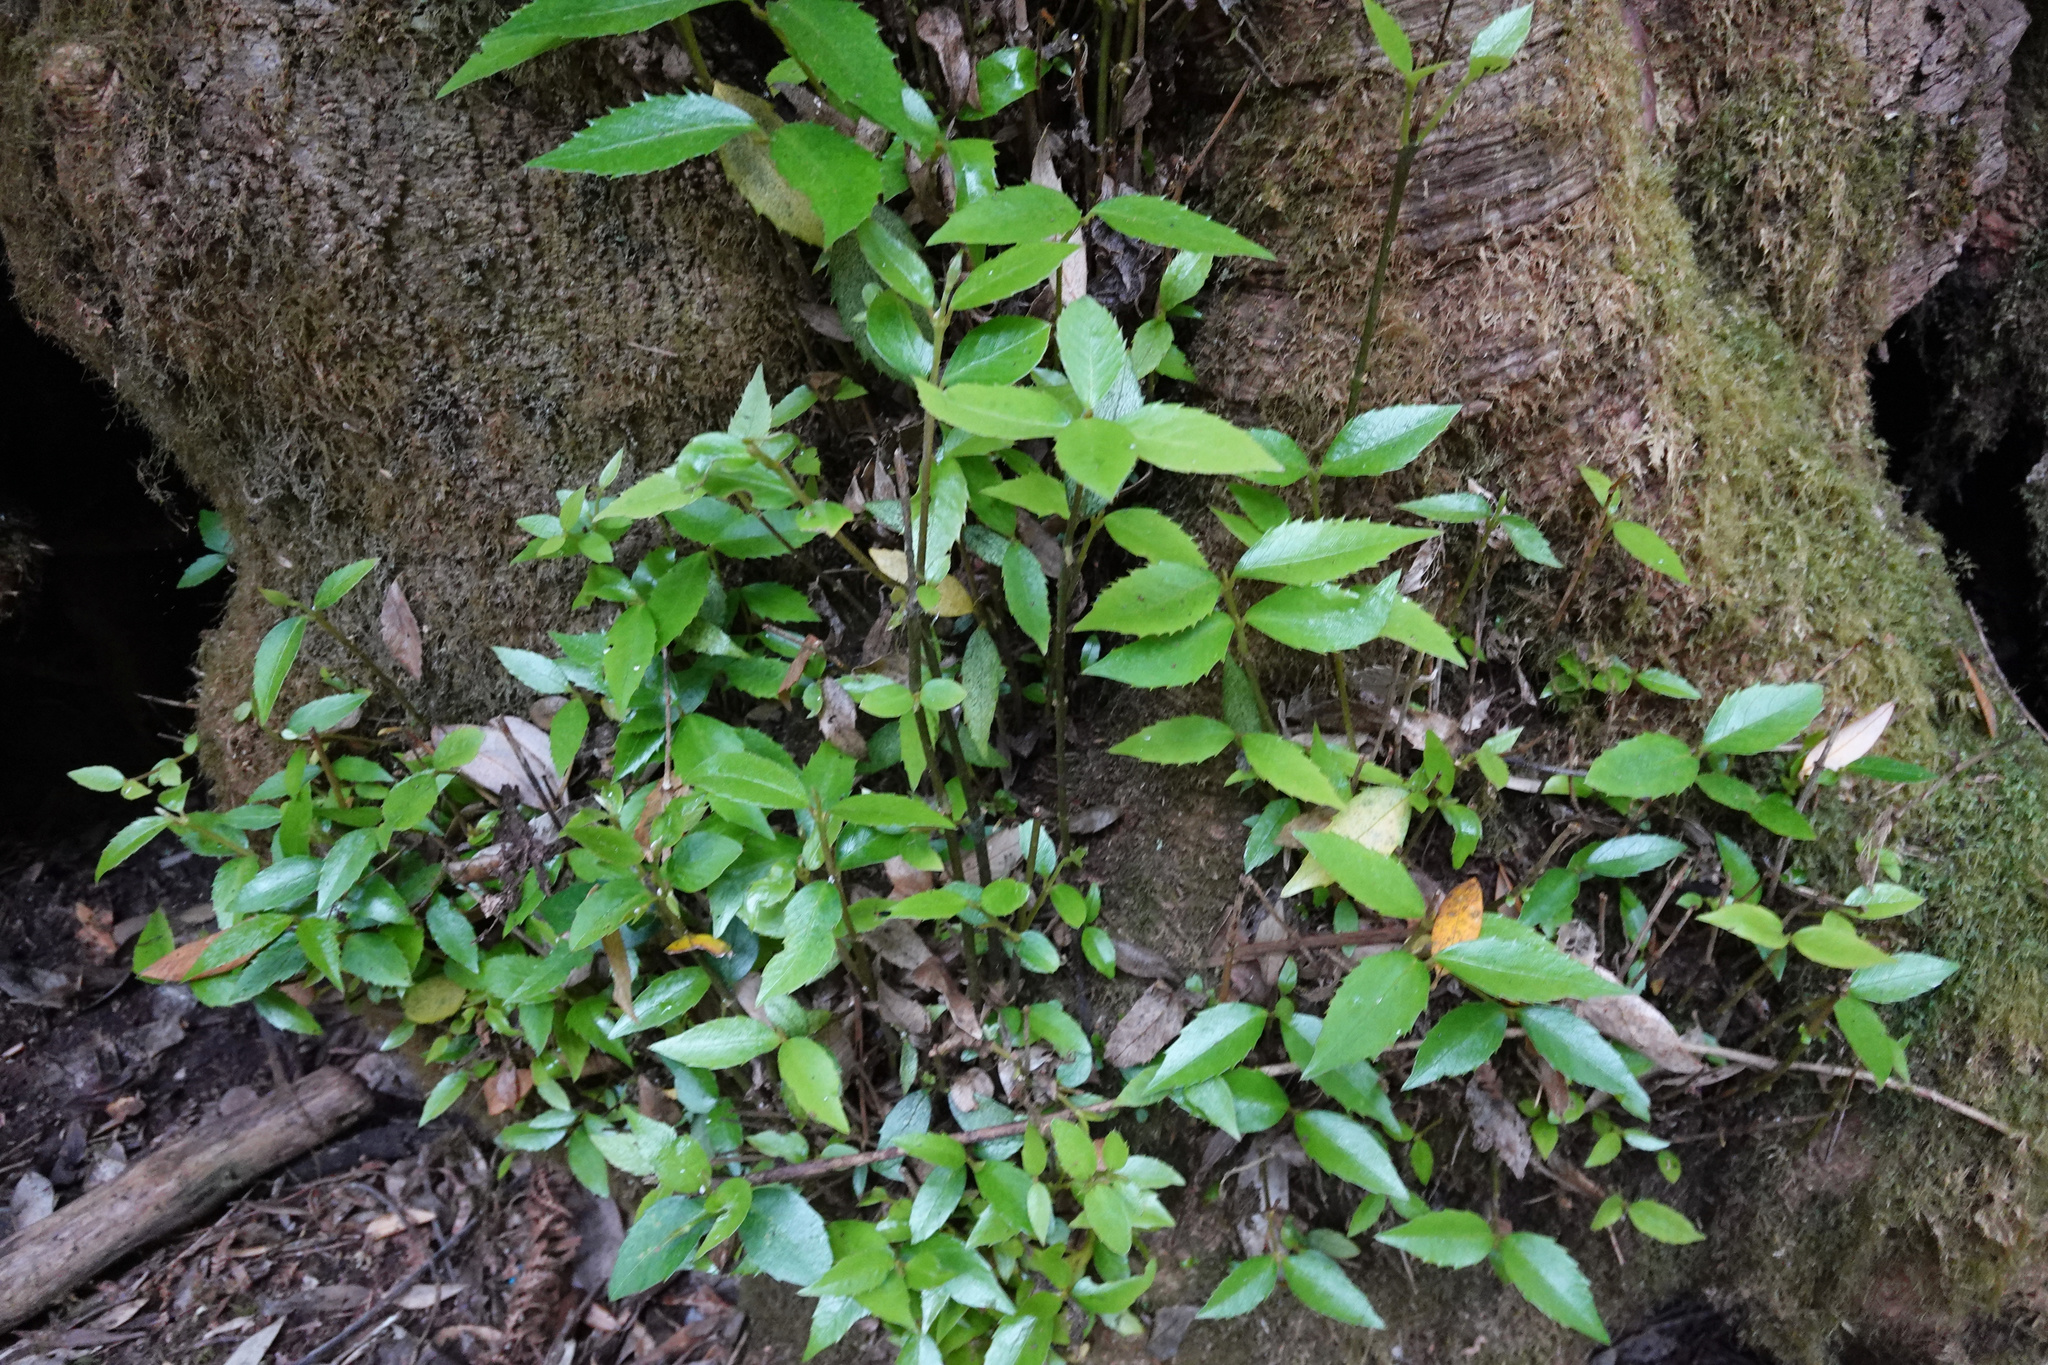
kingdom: Plantae
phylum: Tracheophyta
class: Magnoliopsida
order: Laurales
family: Atherospermataceae
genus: Atherosperma
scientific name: Atherosperma moschatum
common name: Tasmanian-sassafras
